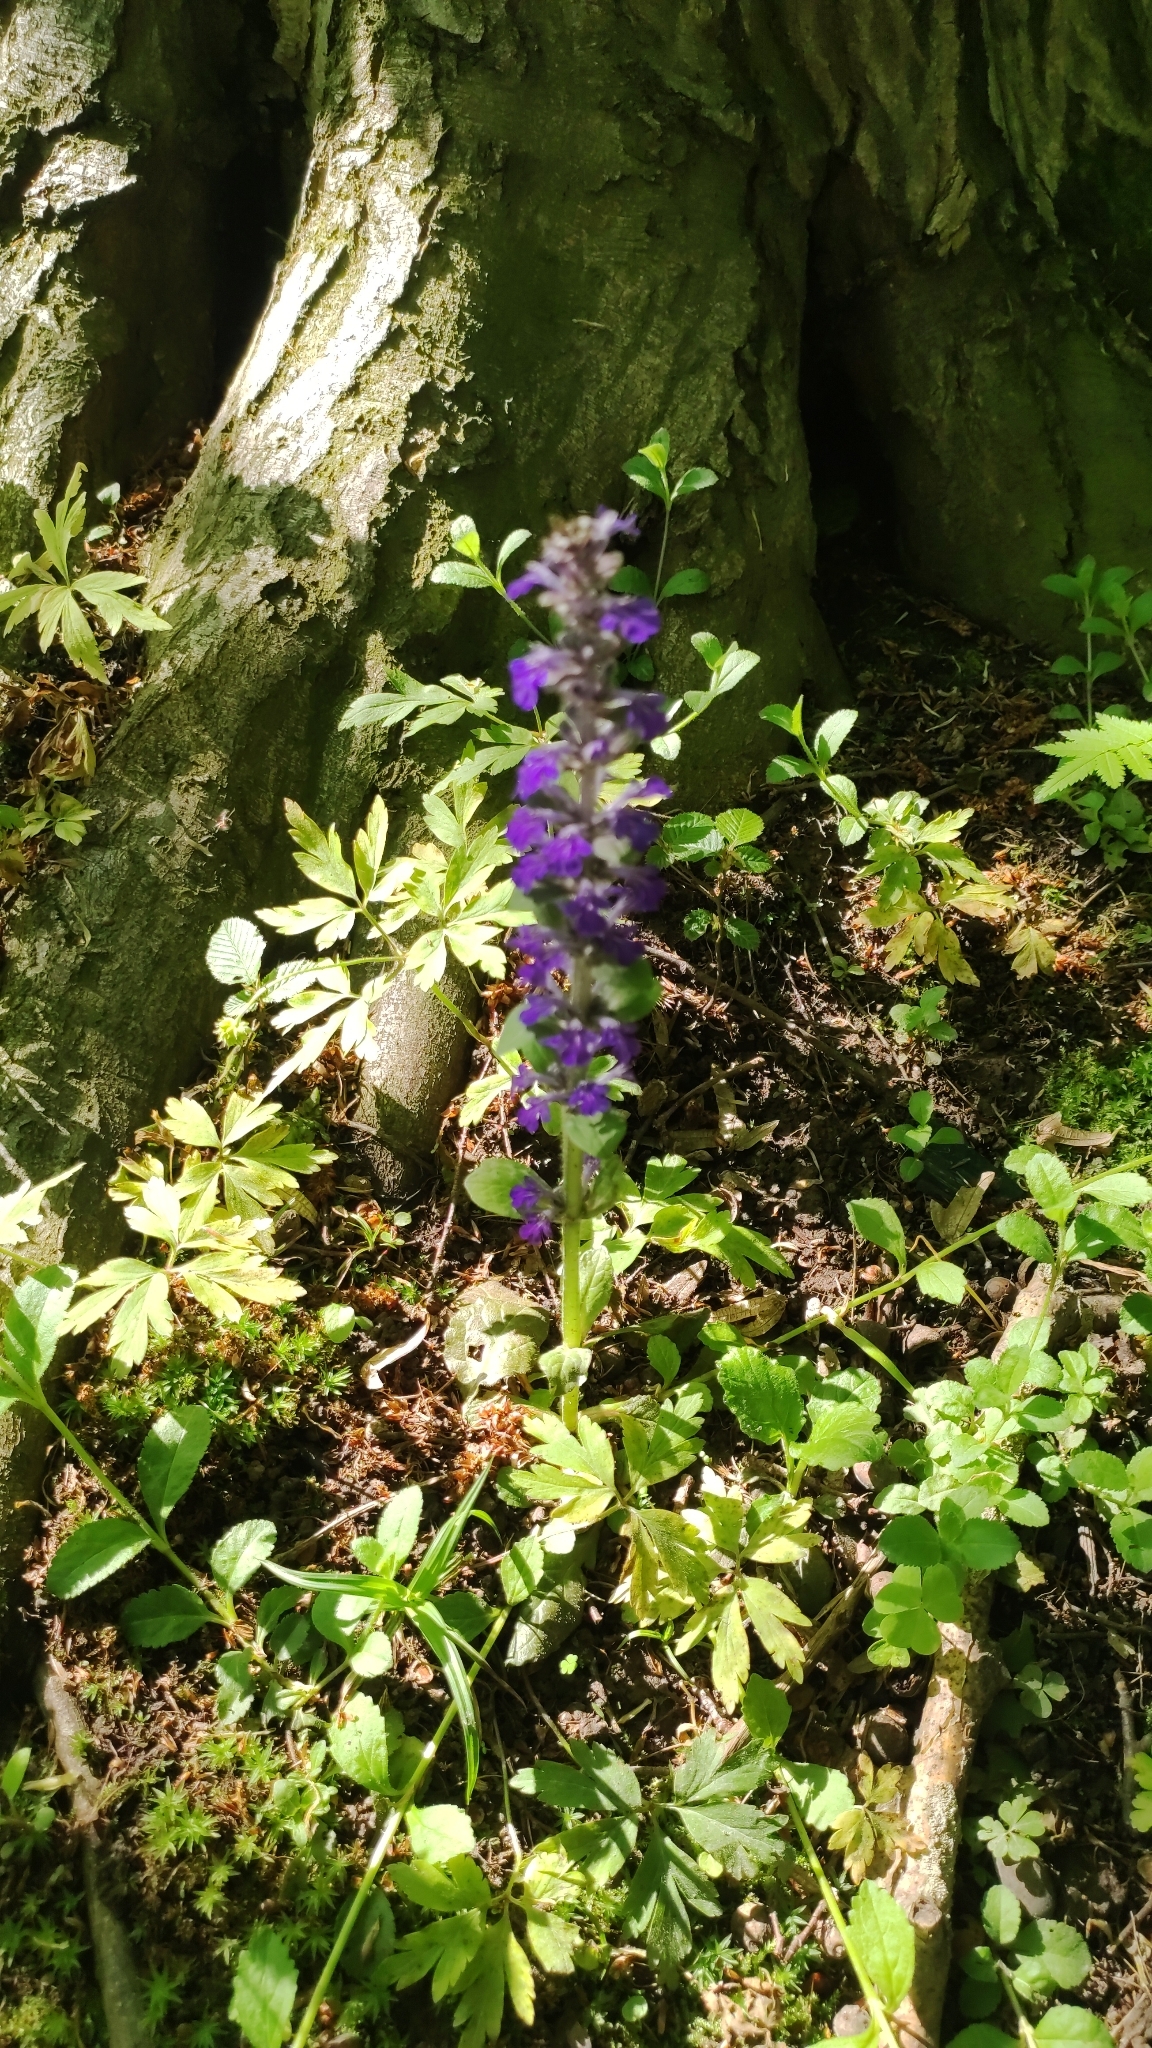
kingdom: Plantae
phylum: Tracheophyta
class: Magnoliopsida
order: Lamiales
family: Lamiaceae
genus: Ajuga
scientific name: Ajuga reptans
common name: Bugle
